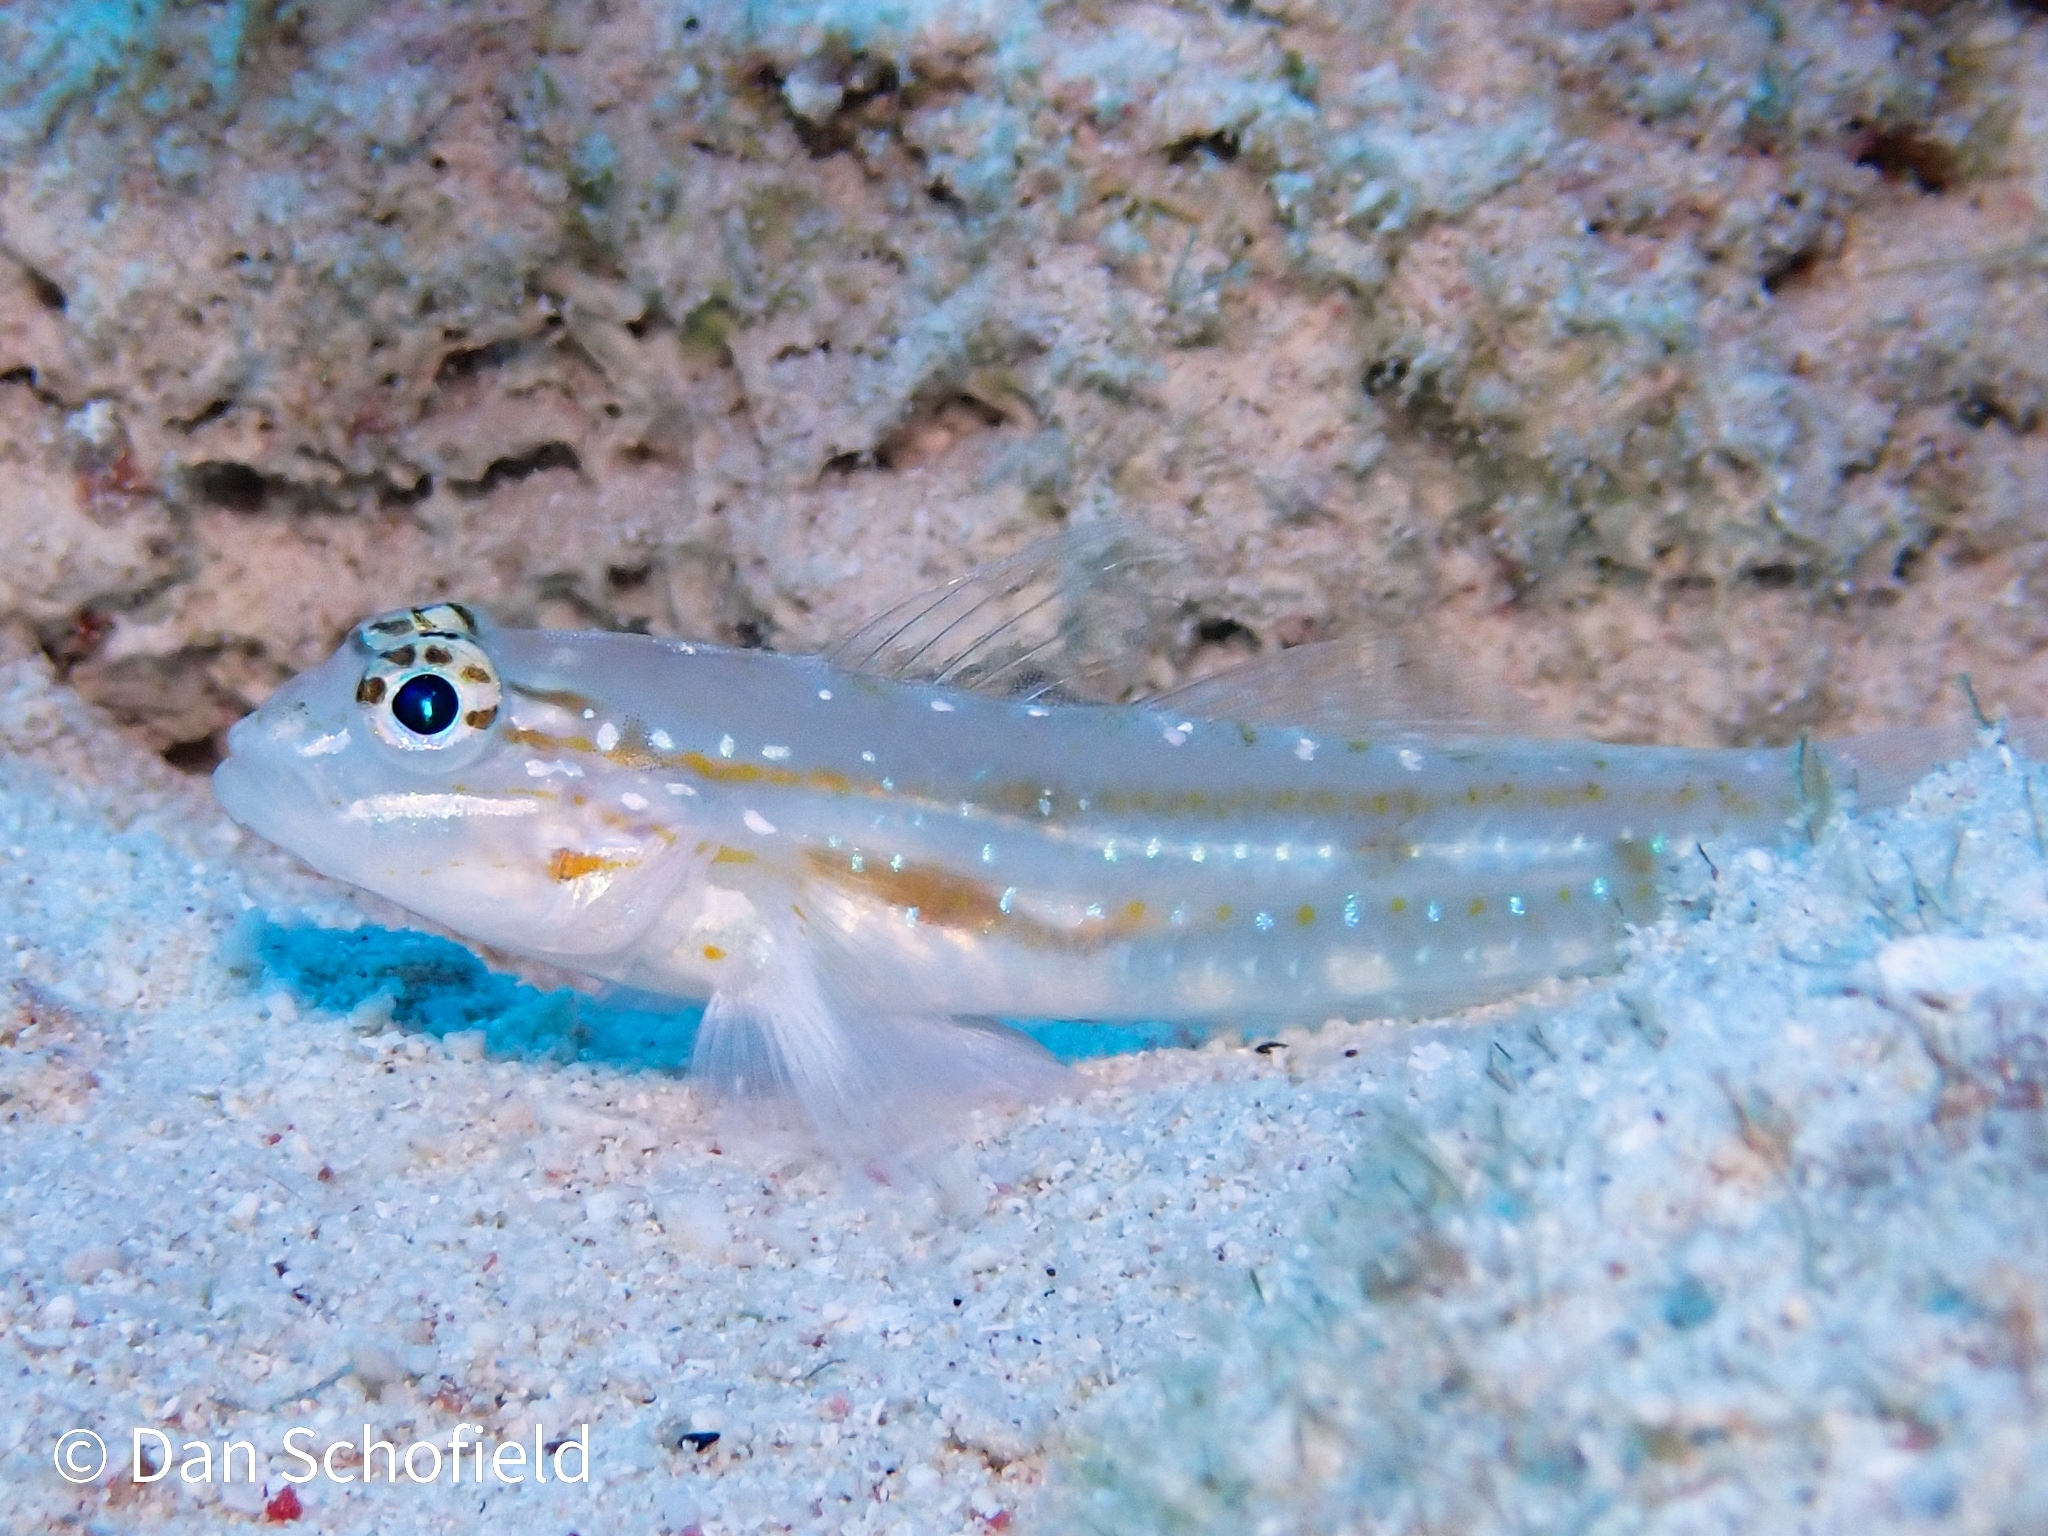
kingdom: Animalia
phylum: Chordata
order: Perciformes
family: Gobiidae
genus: Coryphopterus
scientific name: Coryphopterus venezuelae
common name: Sand-canyon goby
